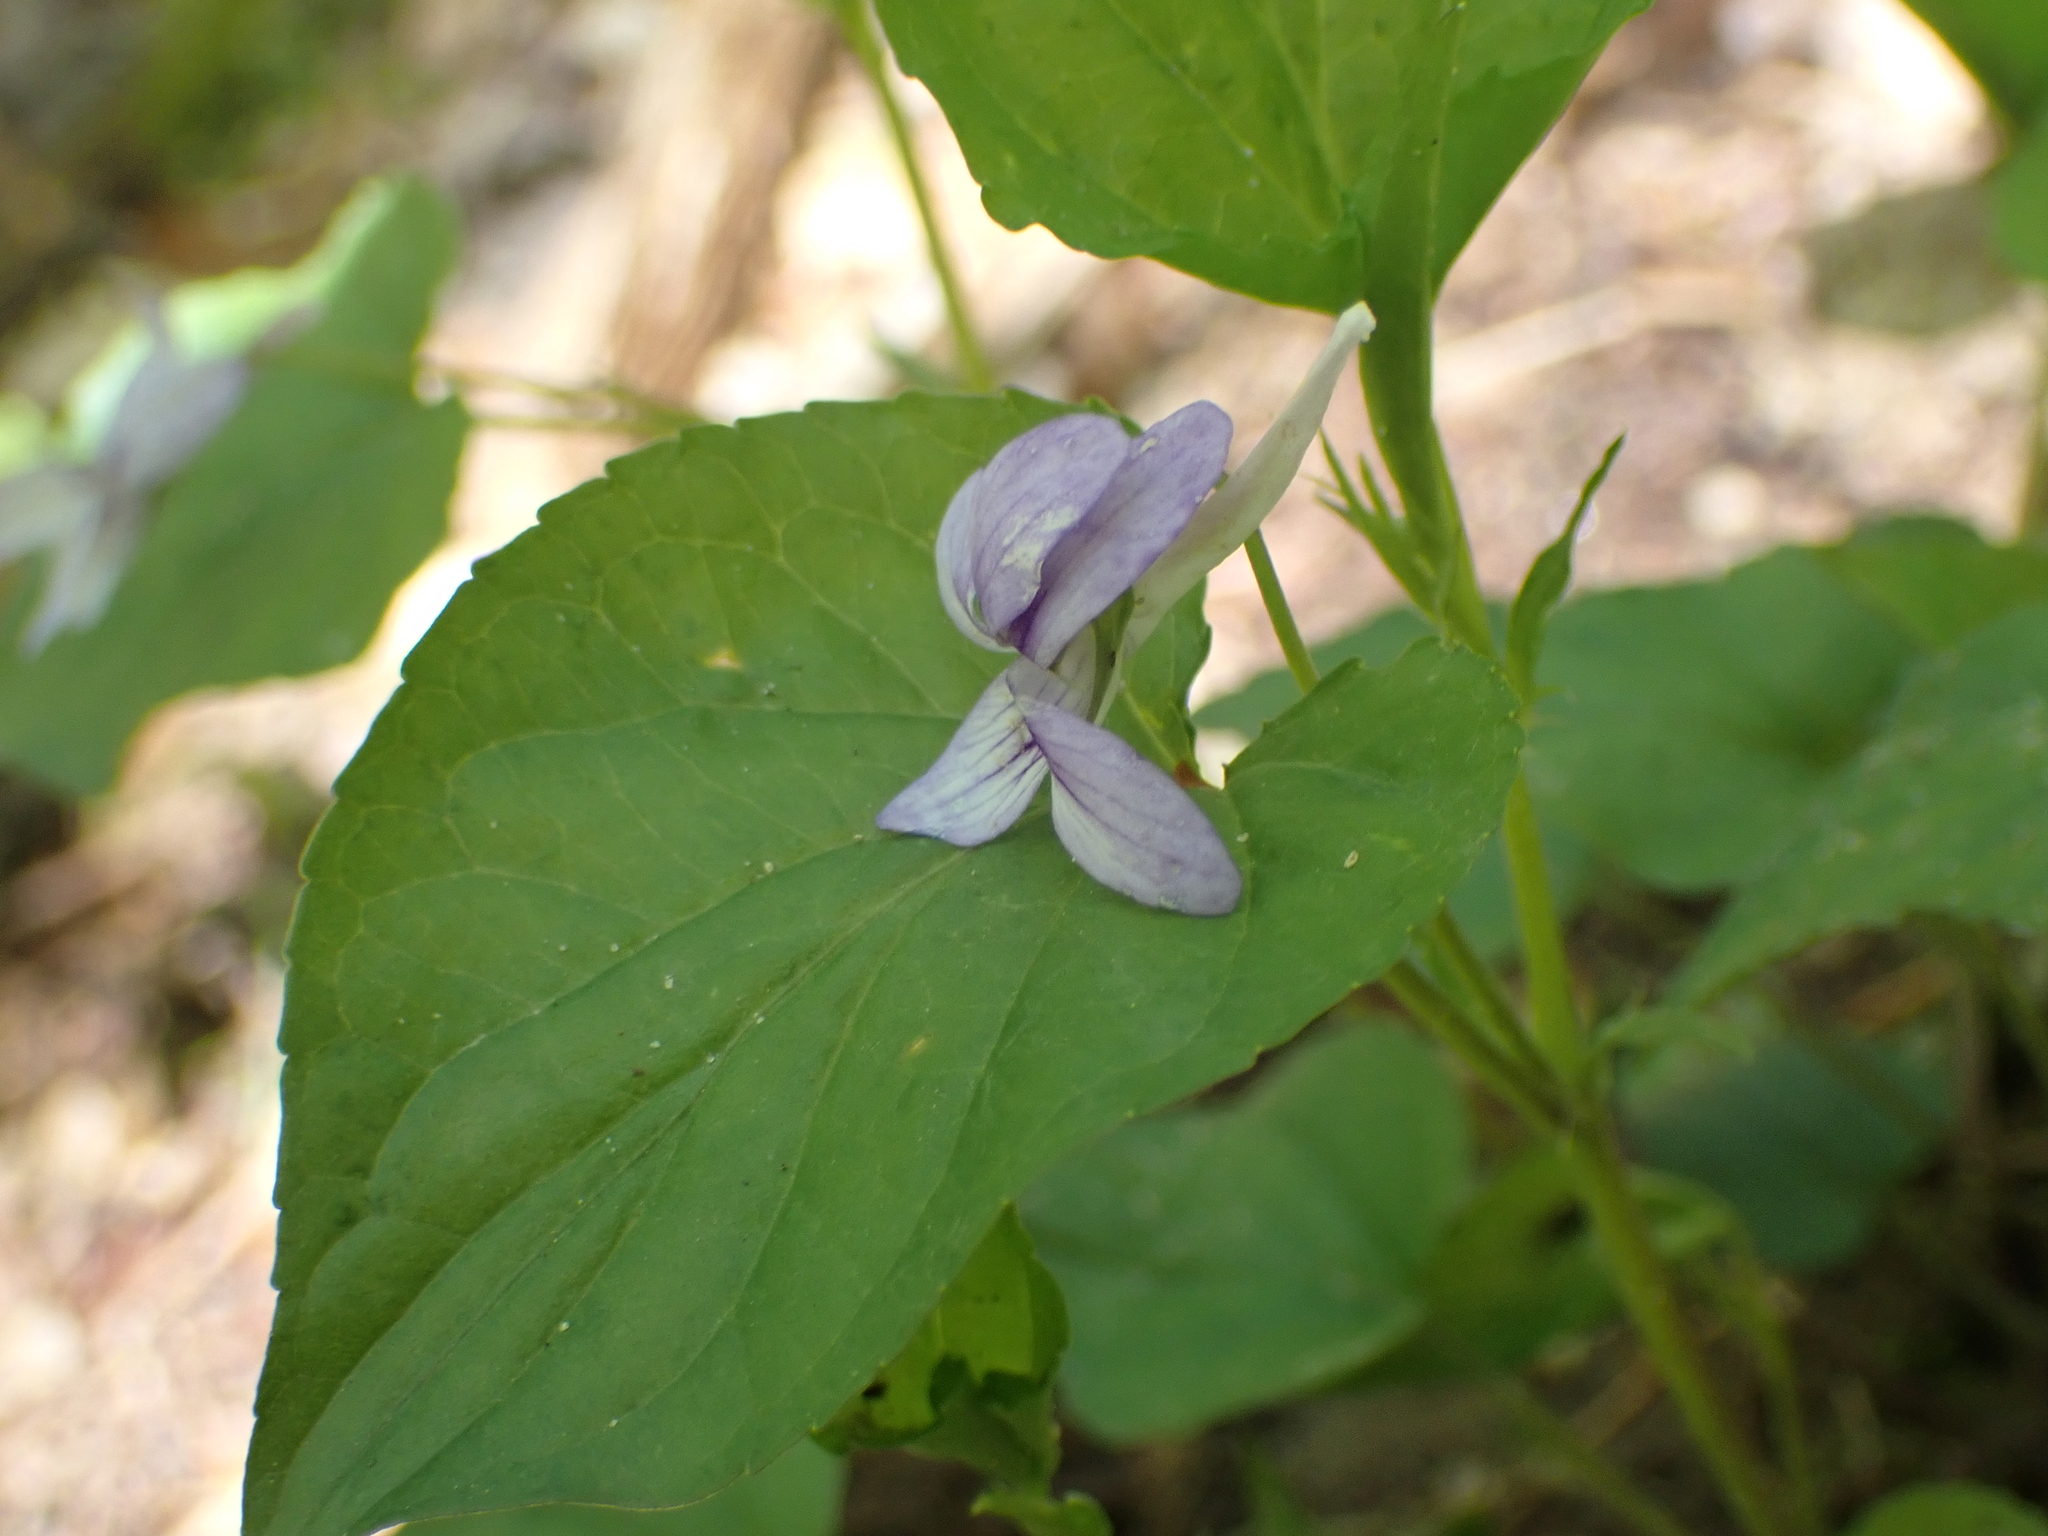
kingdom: Plantae
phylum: Tracheophyta
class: Magnoliopsida
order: Malpighiales
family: Violaceae
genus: Viola
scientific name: Viola rostrata
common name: Long-spur violet
